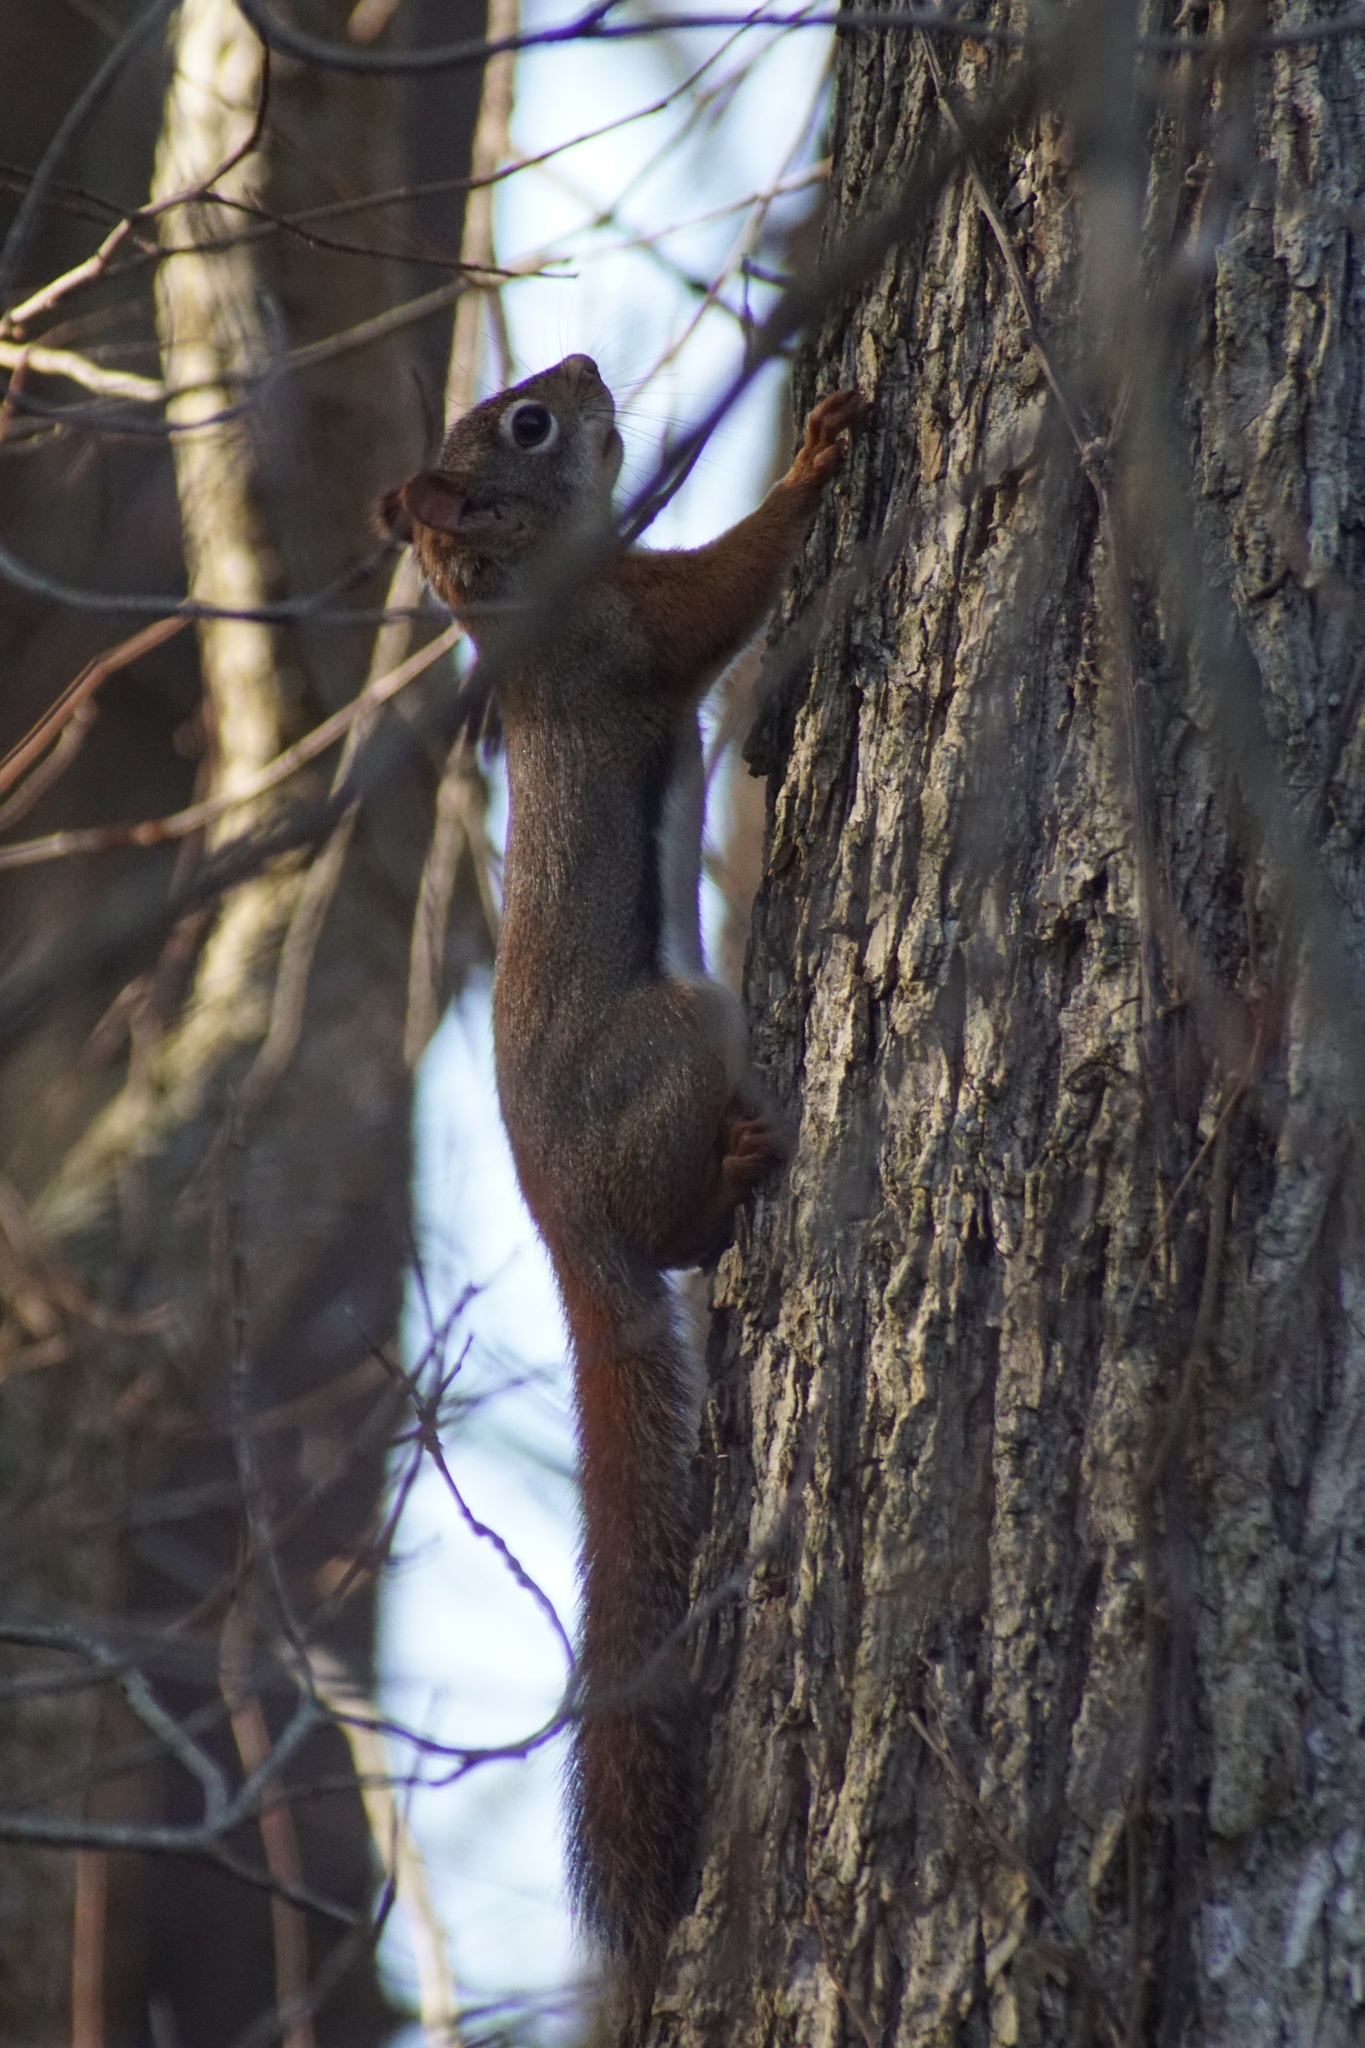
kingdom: Animalia
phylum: Chordata
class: Mammalia
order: Rodentia
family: Sciuridae
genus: Tamiasciurus
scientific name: Tamiasciurus hudsonicus
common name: Red squirrel
